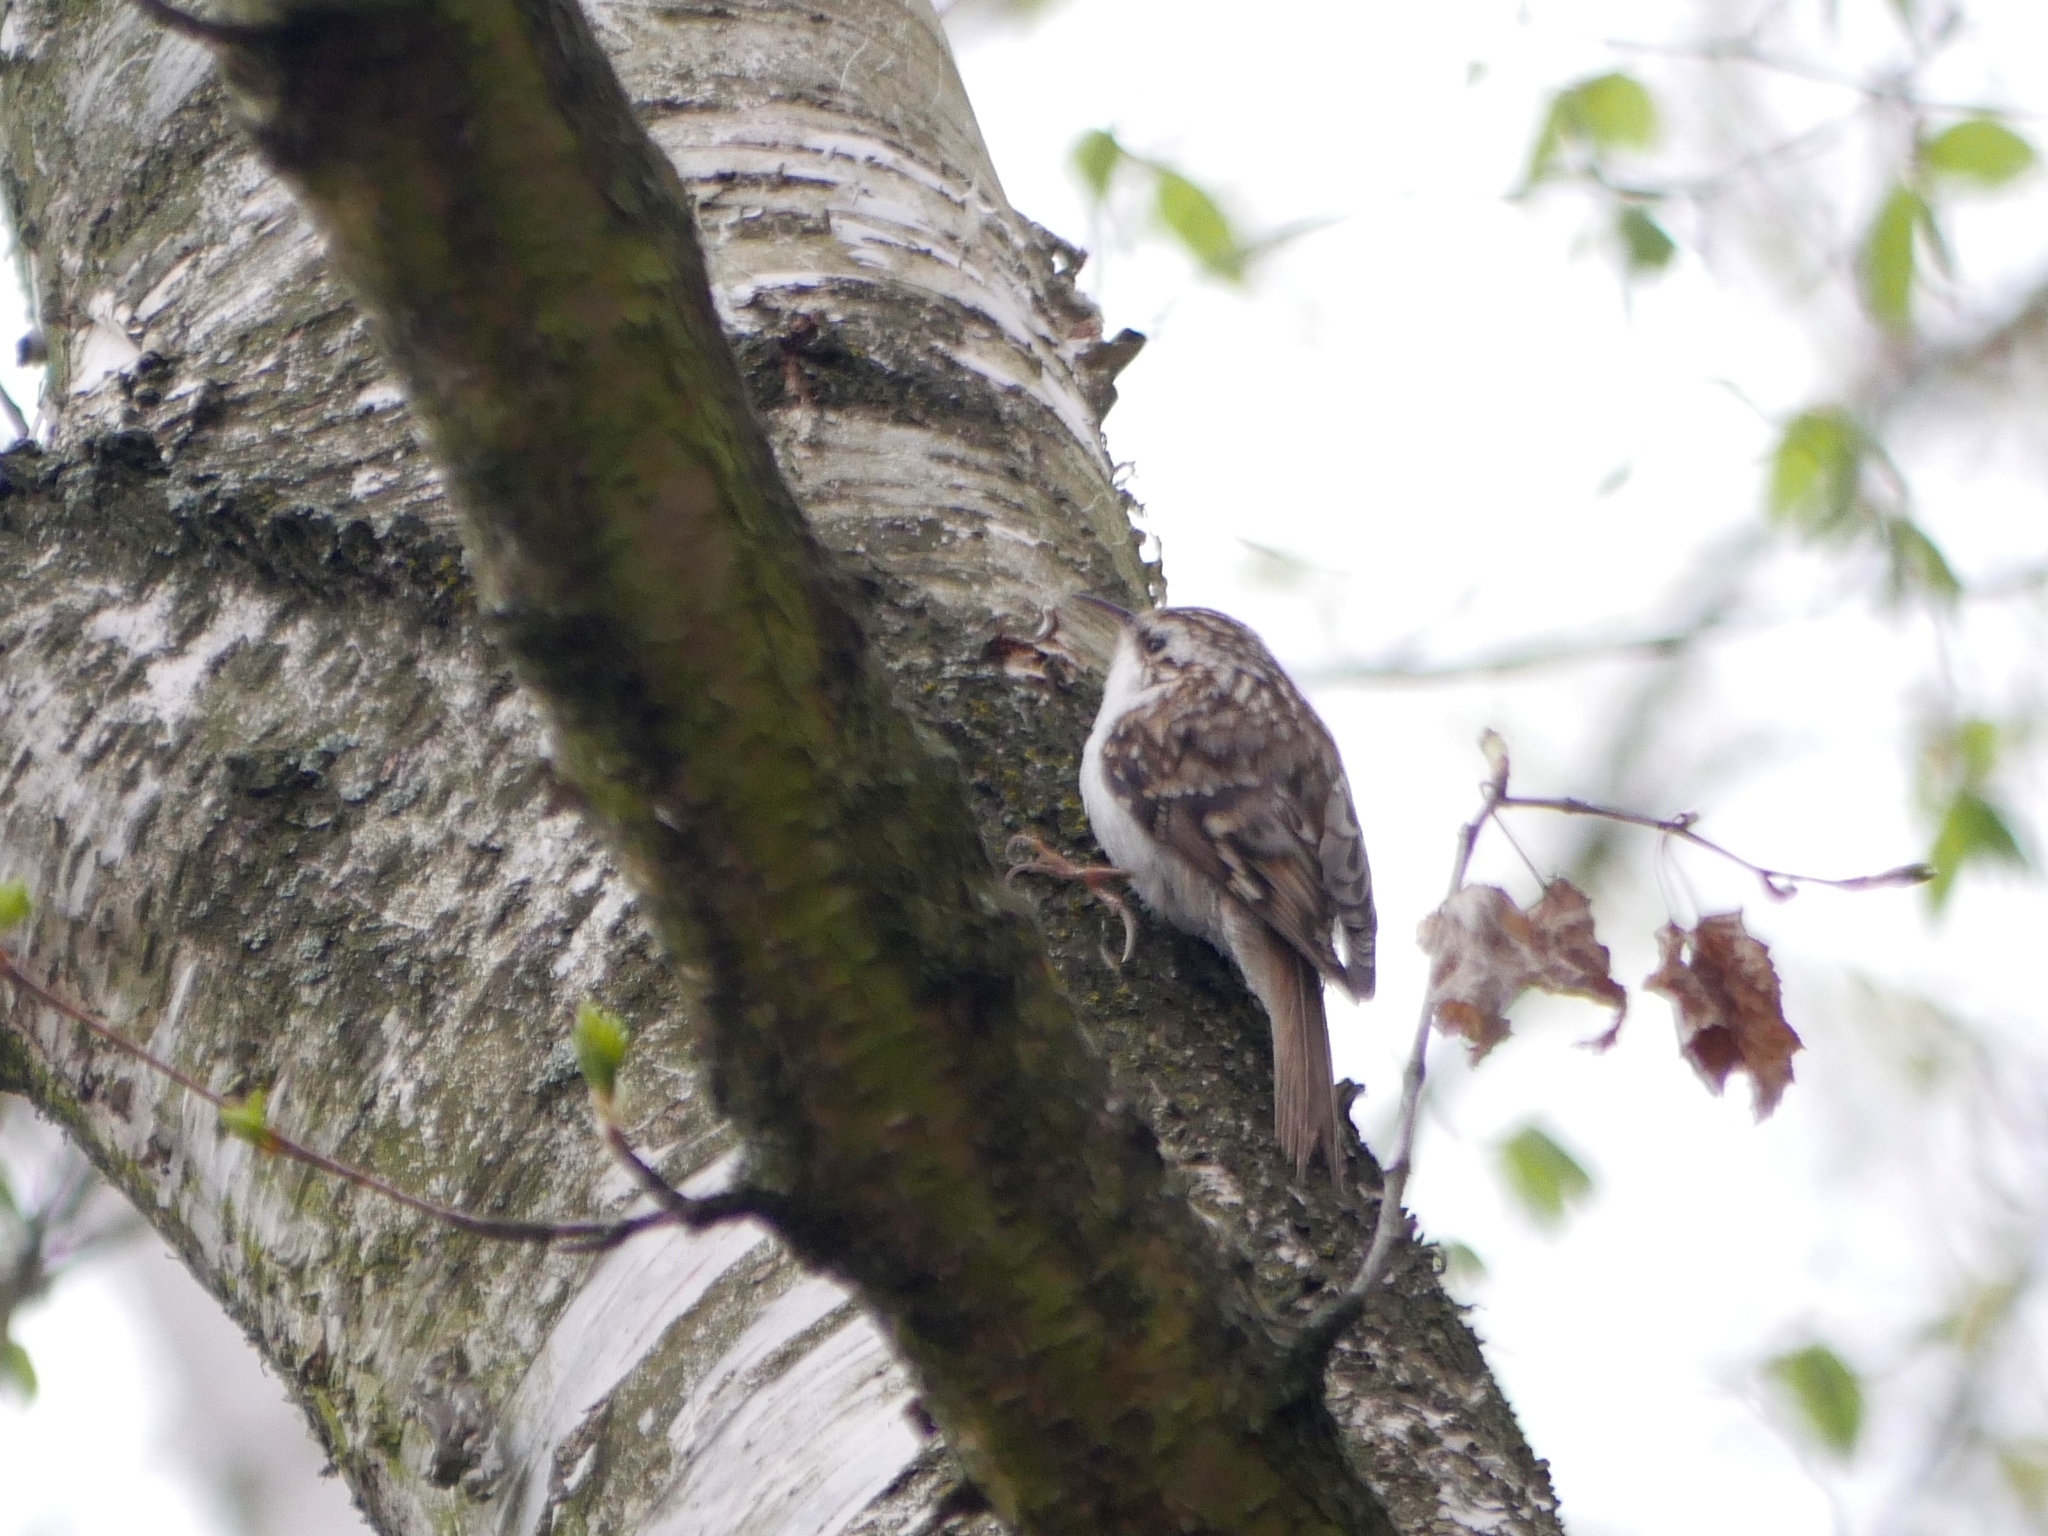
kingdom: Animalia
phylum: Chordata
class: Aves
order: Passeriformes
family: Certhiidae
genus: Certhia
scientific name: Certhia familiaris
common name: Eurasian treecreeper
